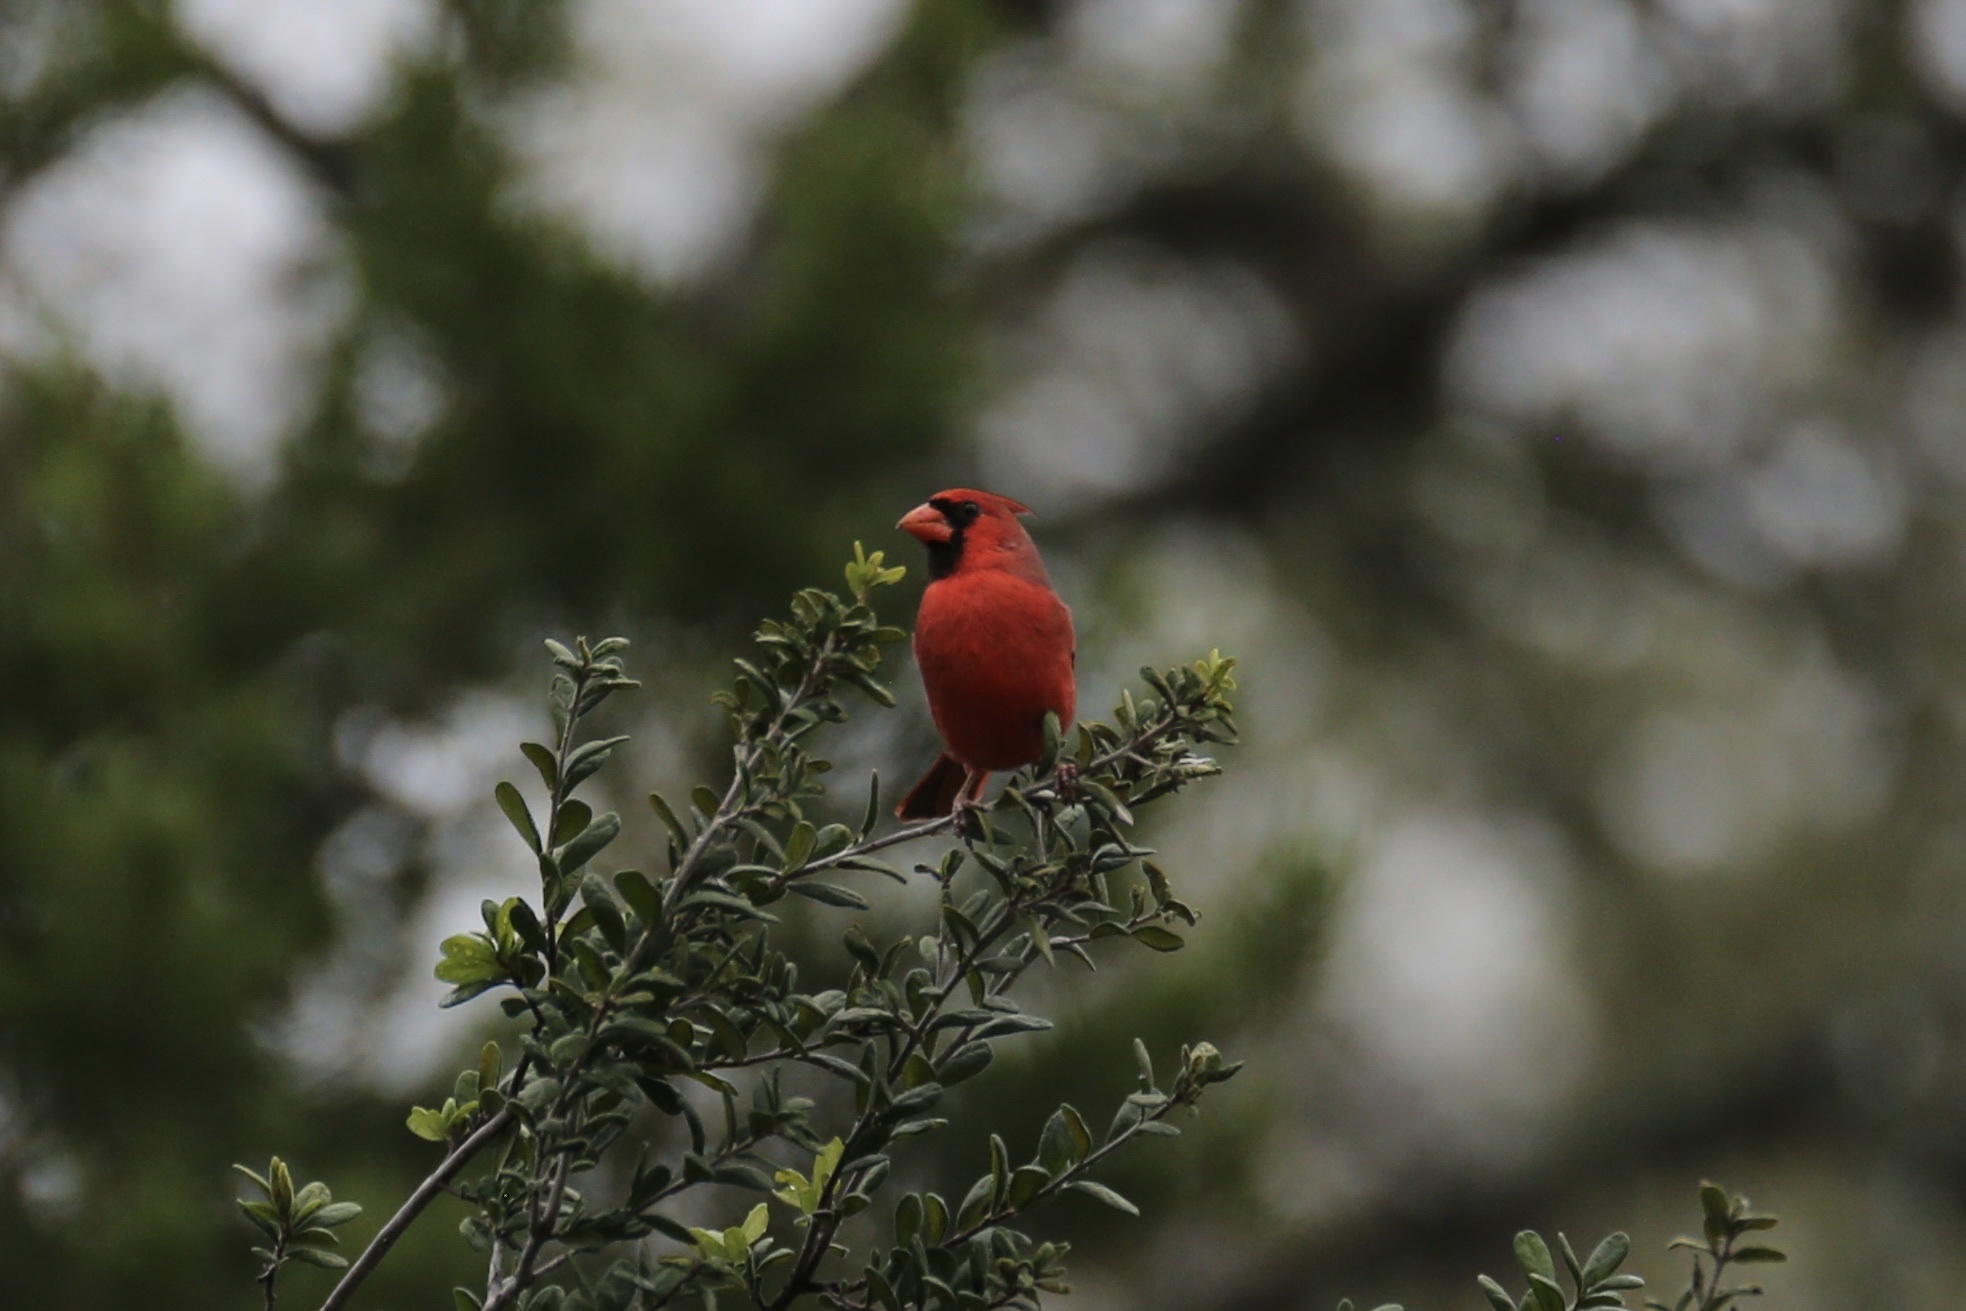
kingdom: Animalia
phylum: Chordata
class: Aves
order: Passeriformes
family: Cardinalidae
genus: Cardinalis
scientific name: Cardinalis cardinalis
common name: Northern cardinal
